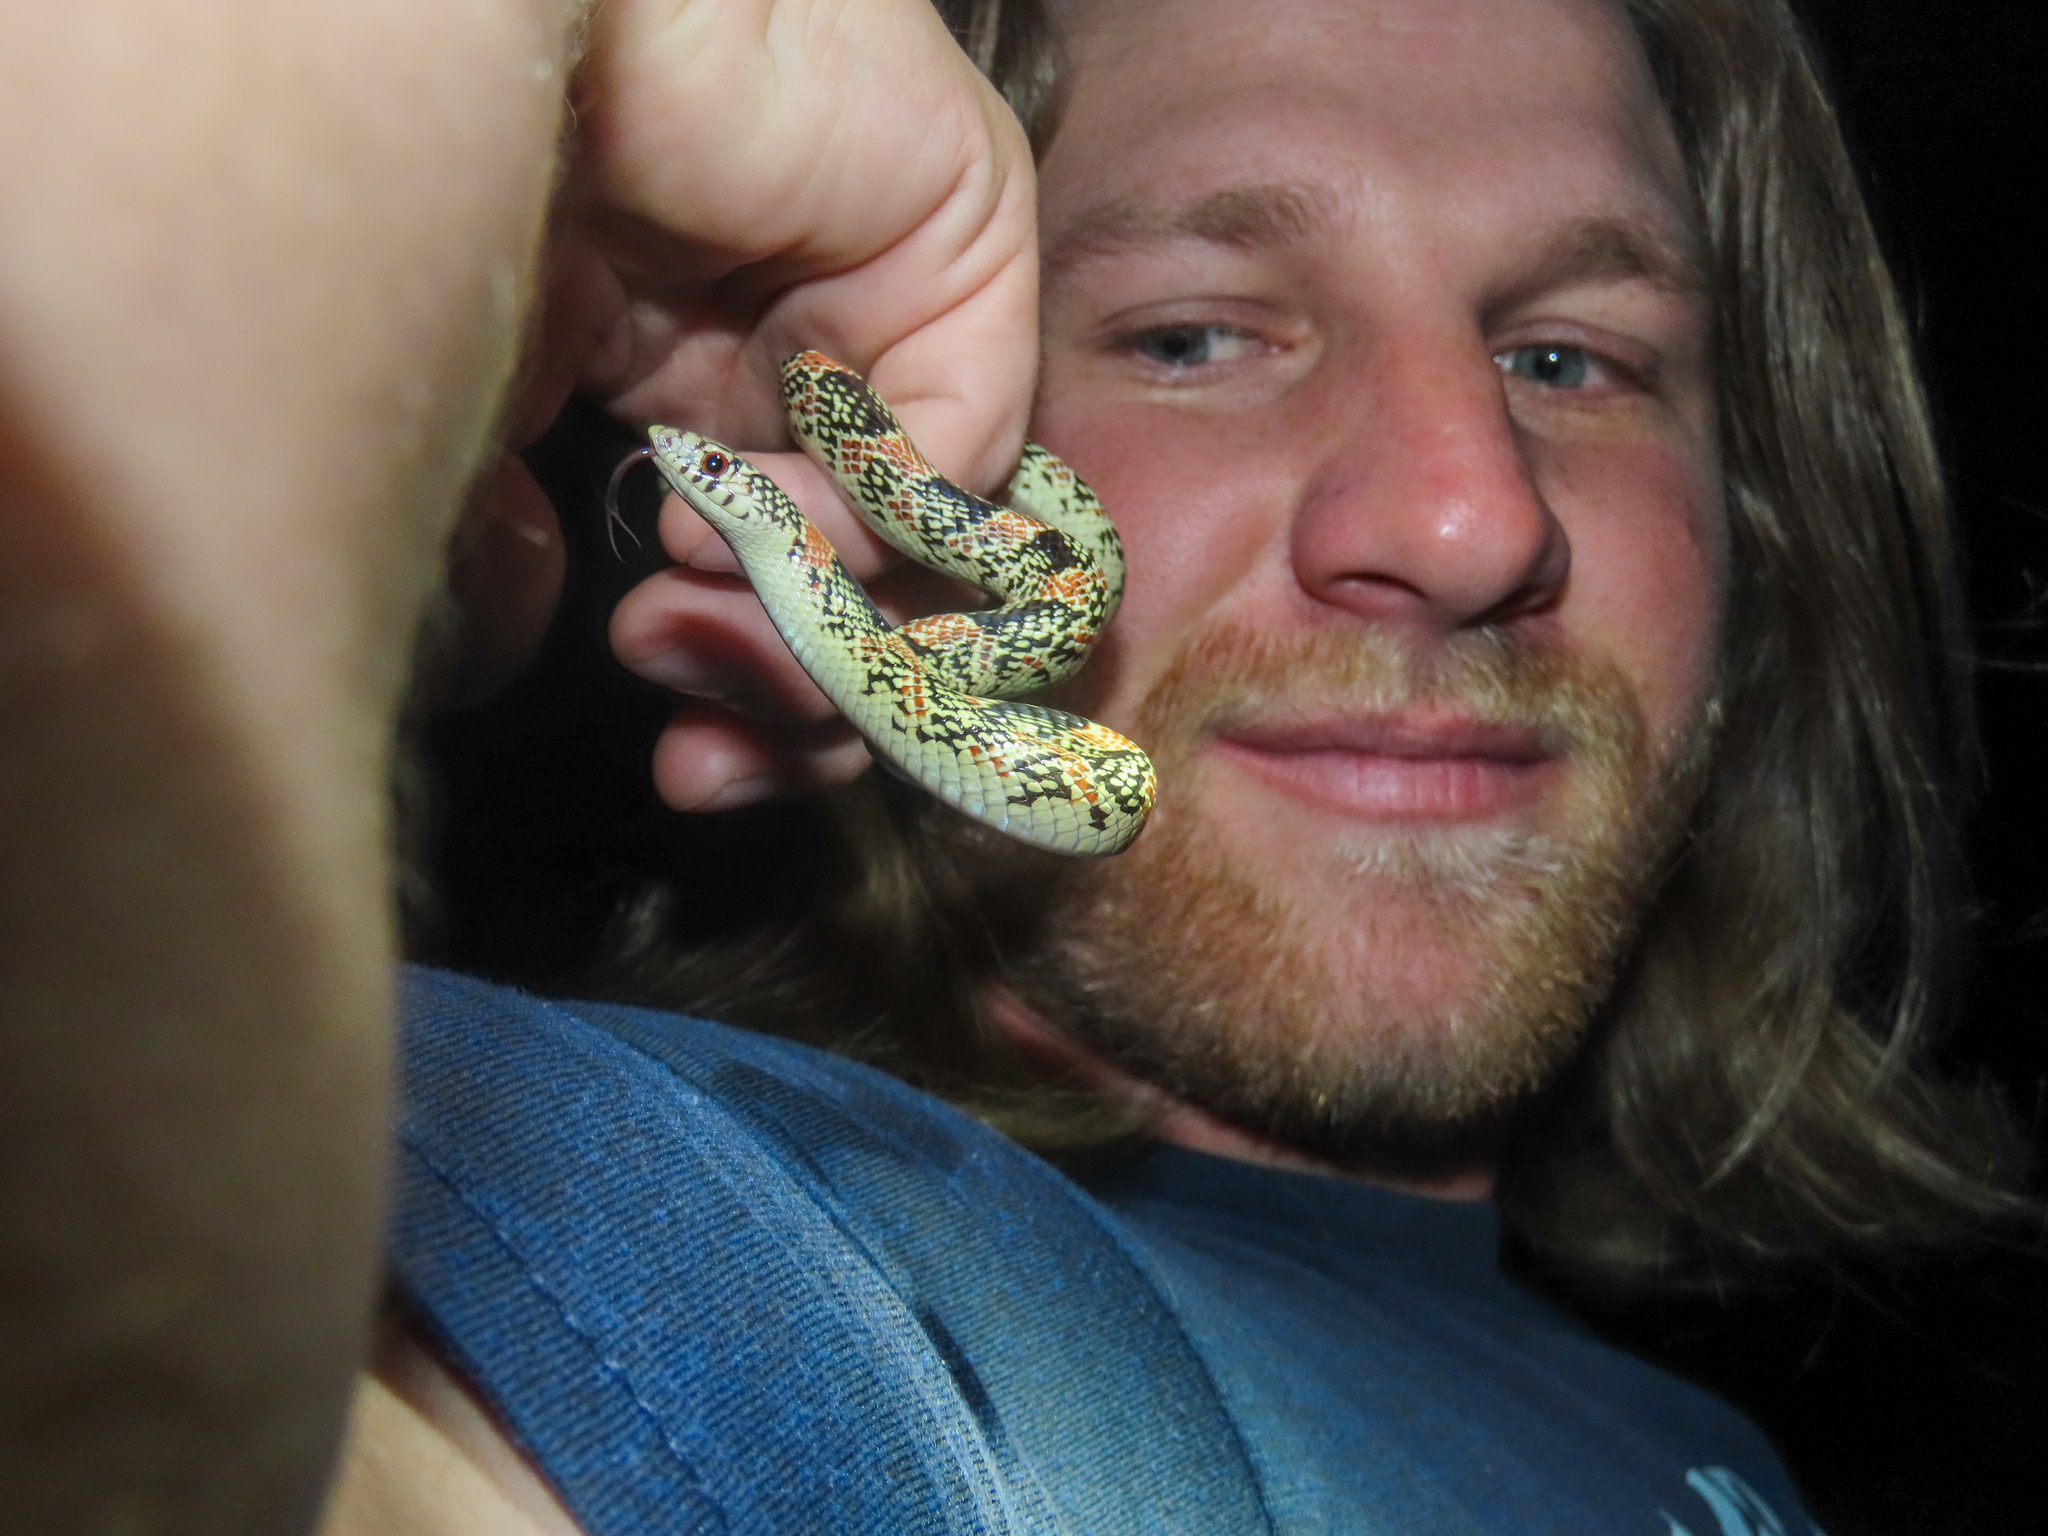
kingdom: Animalia
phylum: Chordata
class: Squamata
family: Colubridae
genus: Rhinocheilus
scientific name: Rhinocheilus lecontei
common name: Longnose snake
